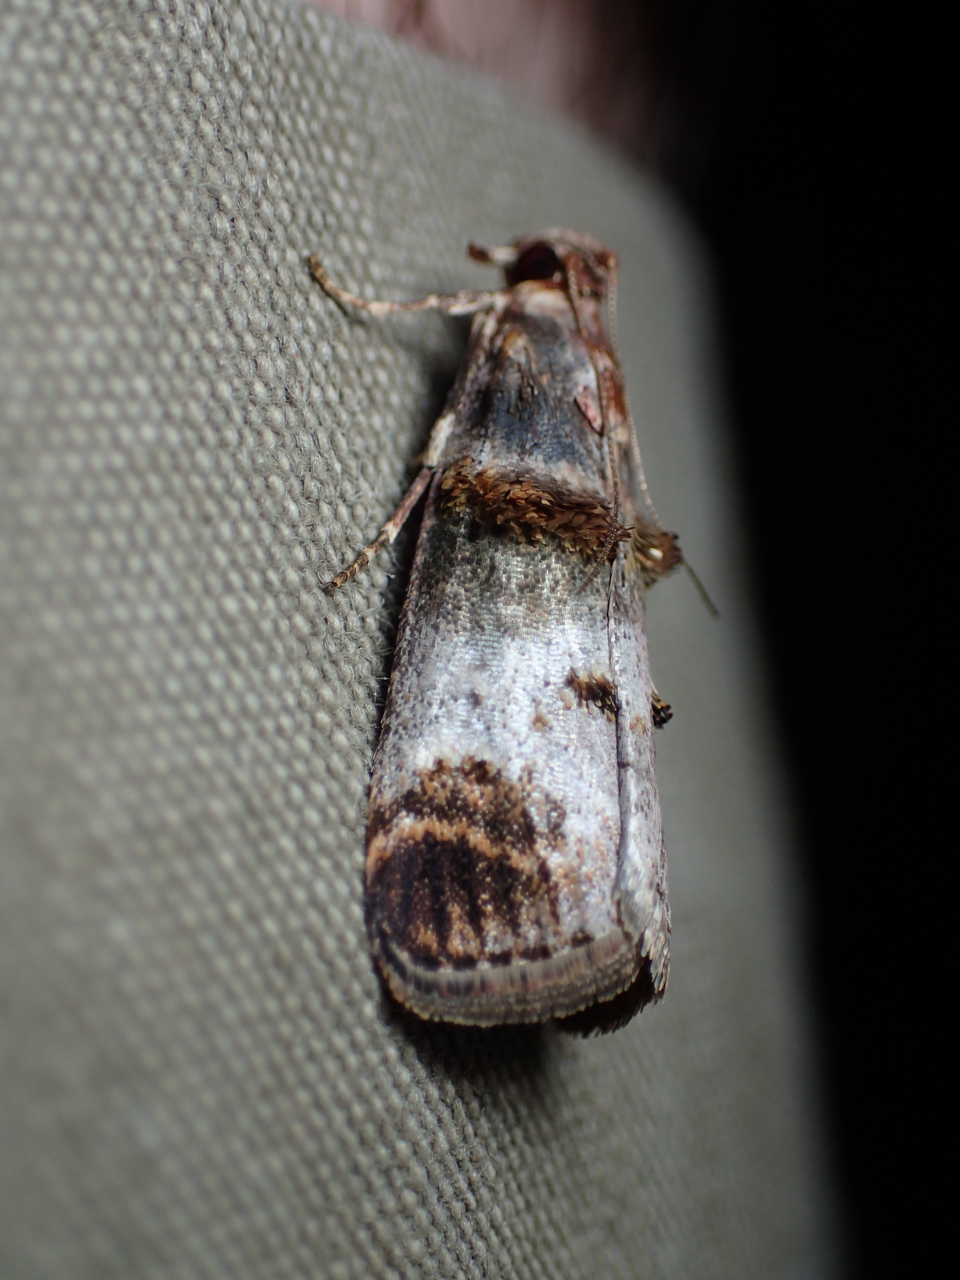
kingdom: Animalia
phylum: Arthropoda
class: Insecta
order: Lepidoptera
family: Pyralidae
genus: Oneida
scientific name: Oneida lunulalis
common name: Orange-tufted oneida moth
